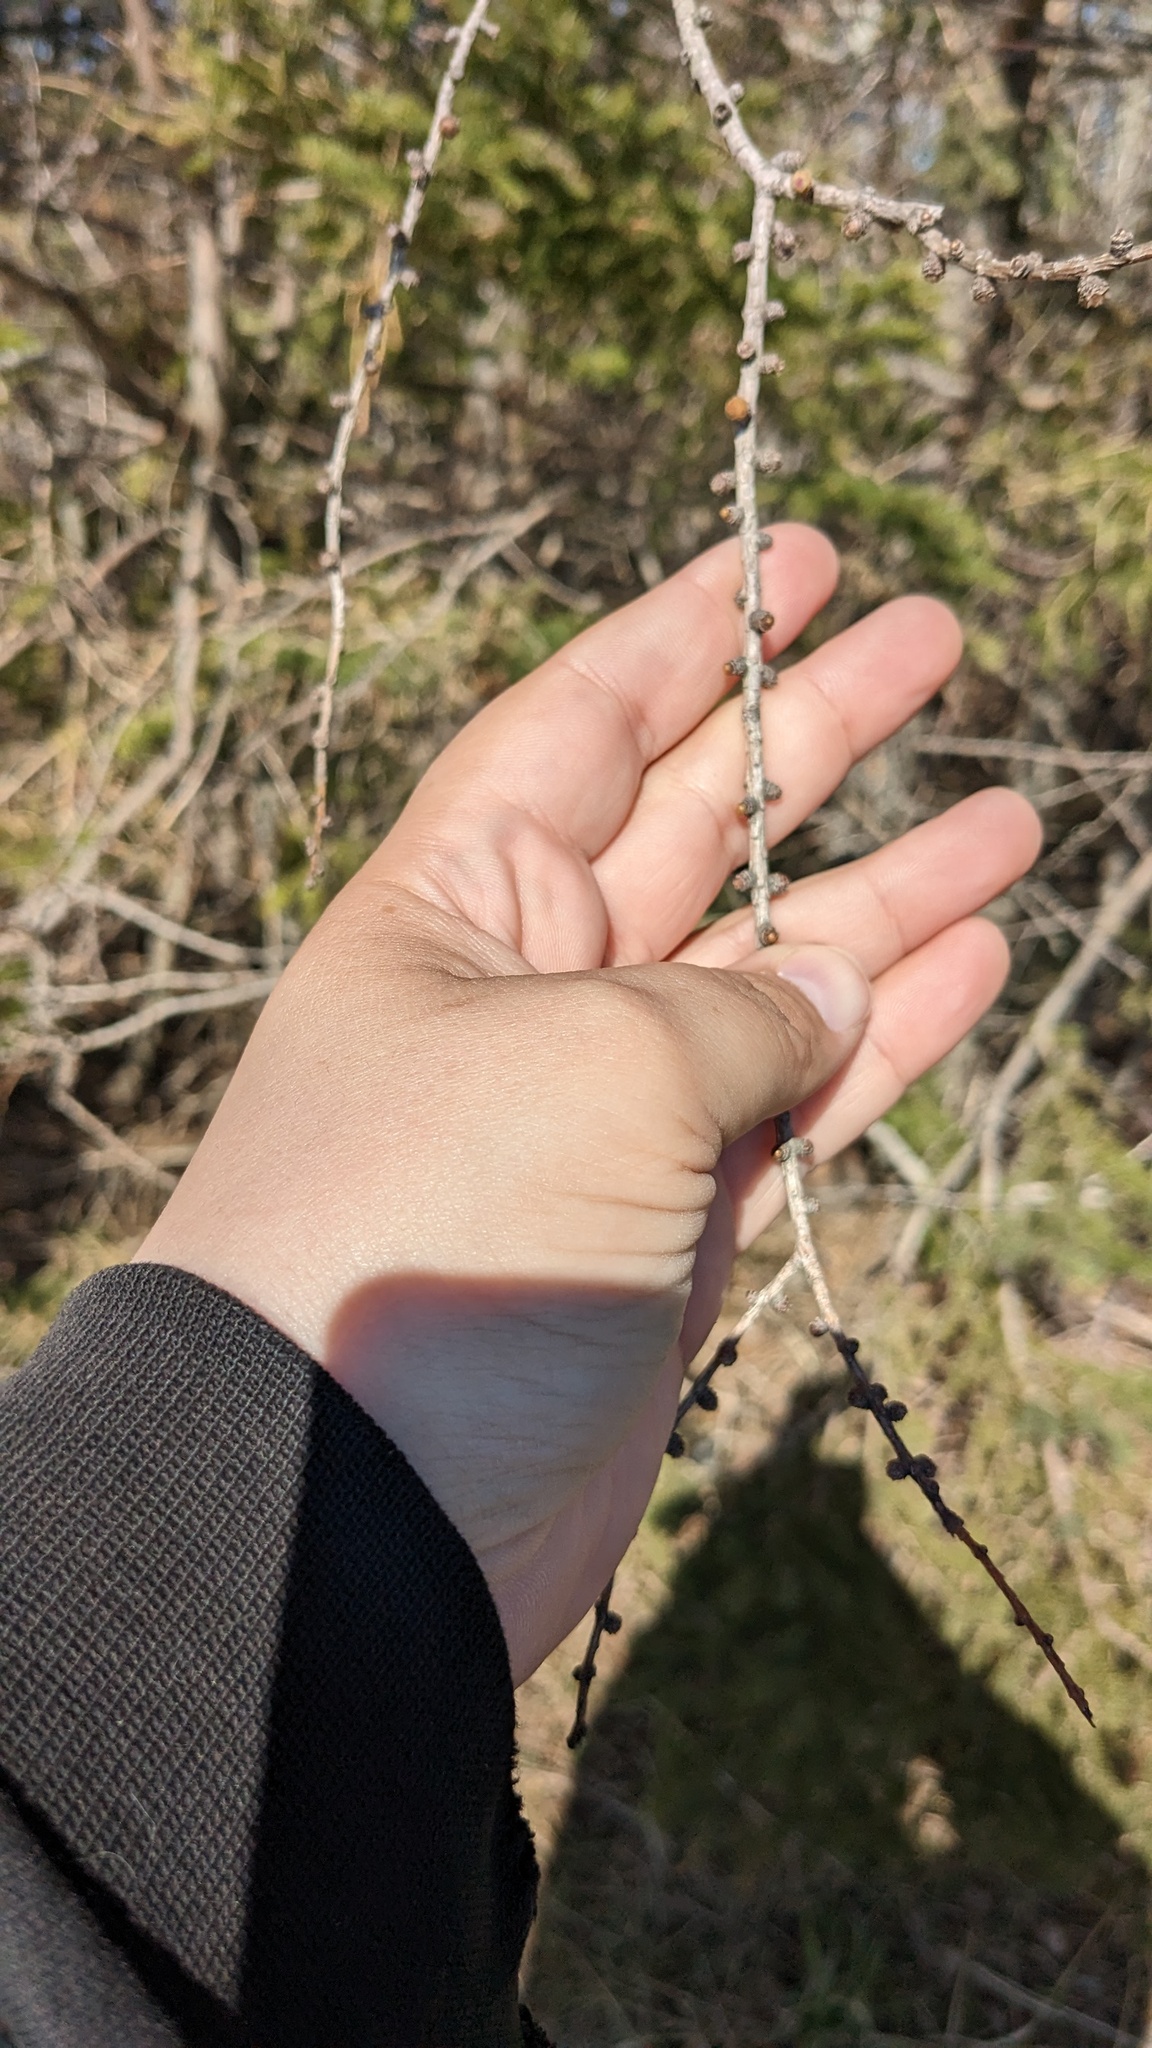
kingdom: Plantae
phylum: Tracheophyta
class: Pinopsida
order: Pinales
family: Pinaceae
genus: Larix
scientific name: Larix laricina
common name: American larch
